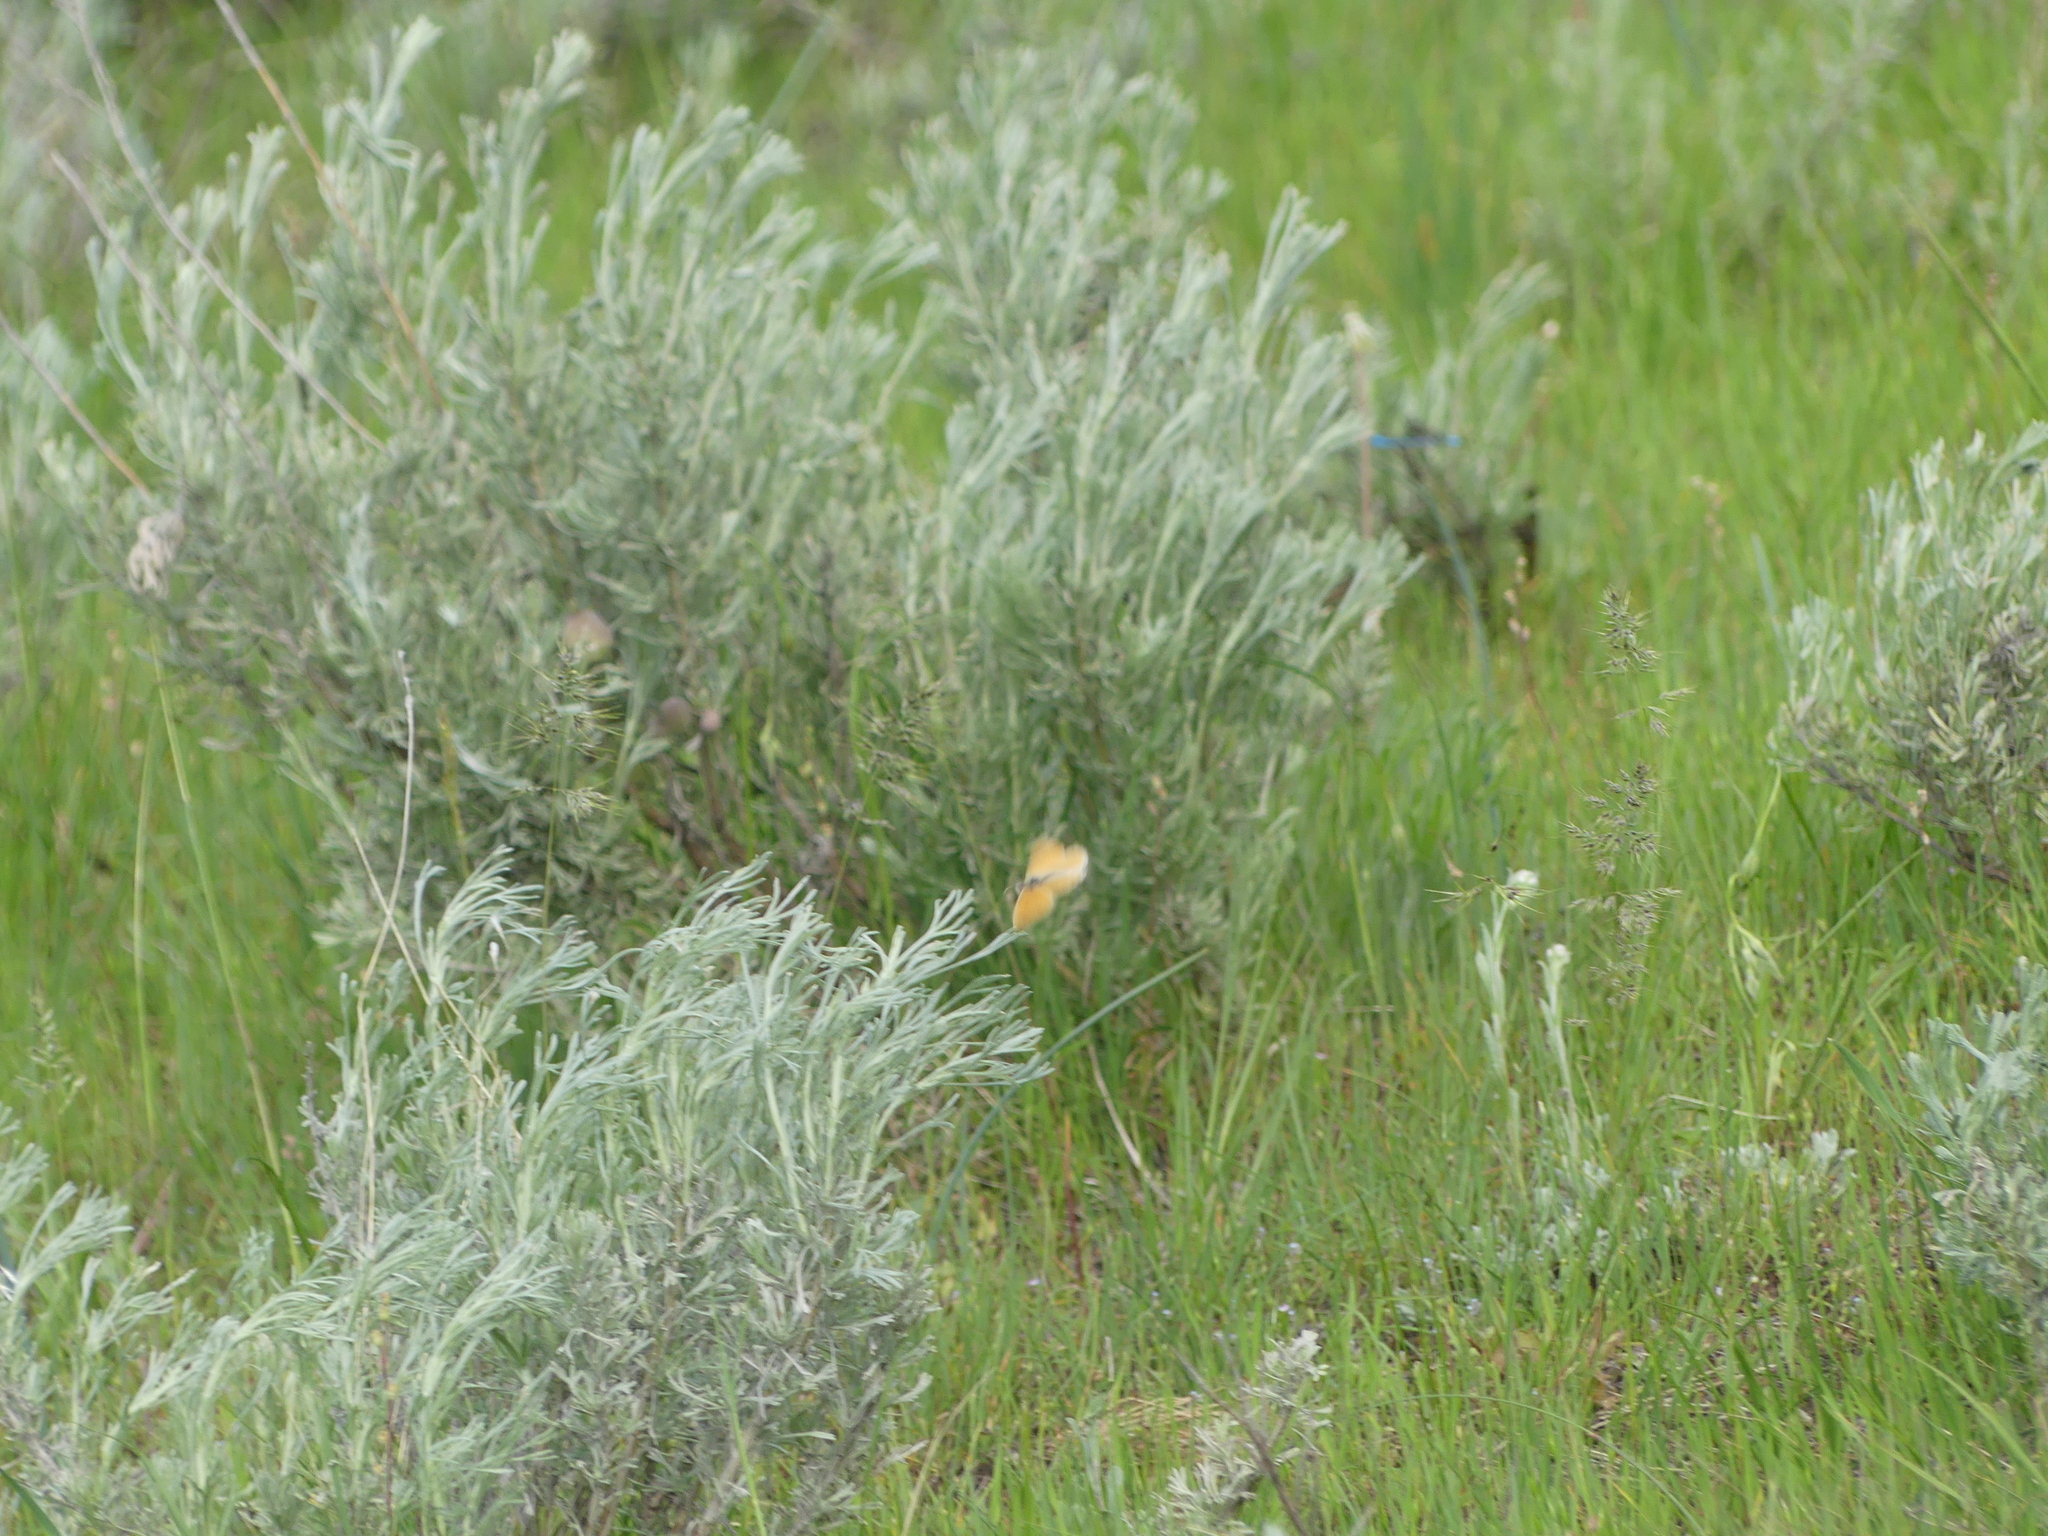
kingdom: Animalia
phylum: Arthropoda
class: Insecta
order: Lepidoptera
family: Nymphalidae
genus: Coenonympha
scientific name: Coenonympha california
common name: Common ringlet
